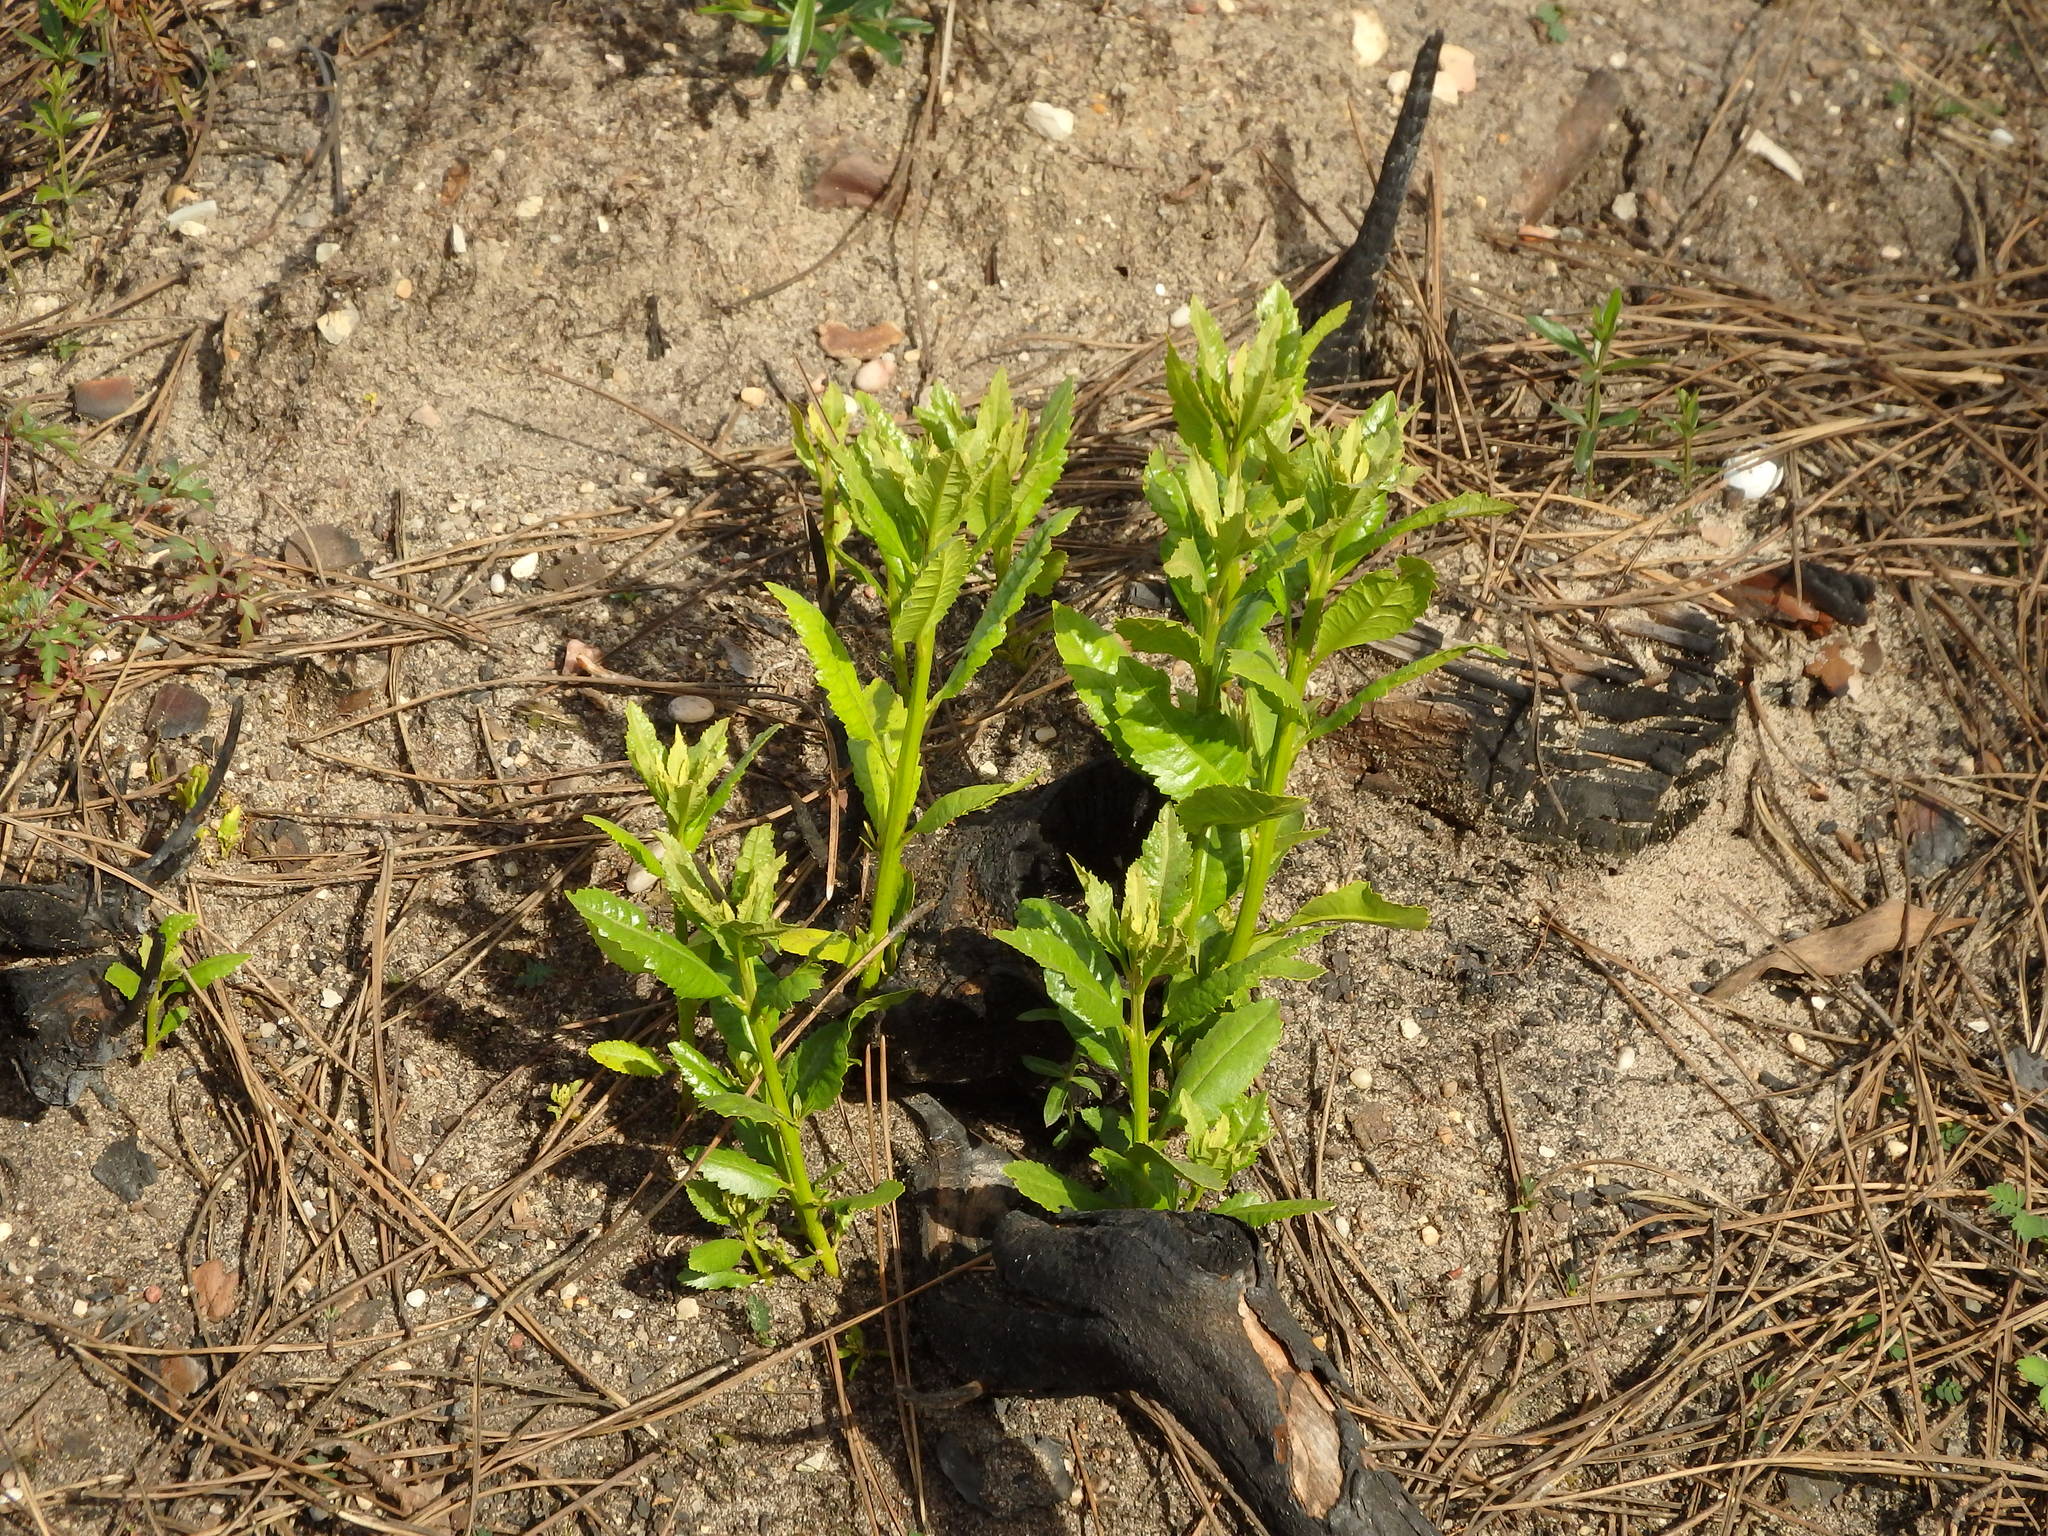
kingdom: Plantae
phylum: Tracheophyta
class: Magnoliopsida
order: Fagales
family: Myricaceae
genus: Morella
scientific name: Morella faya
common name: Firetree
